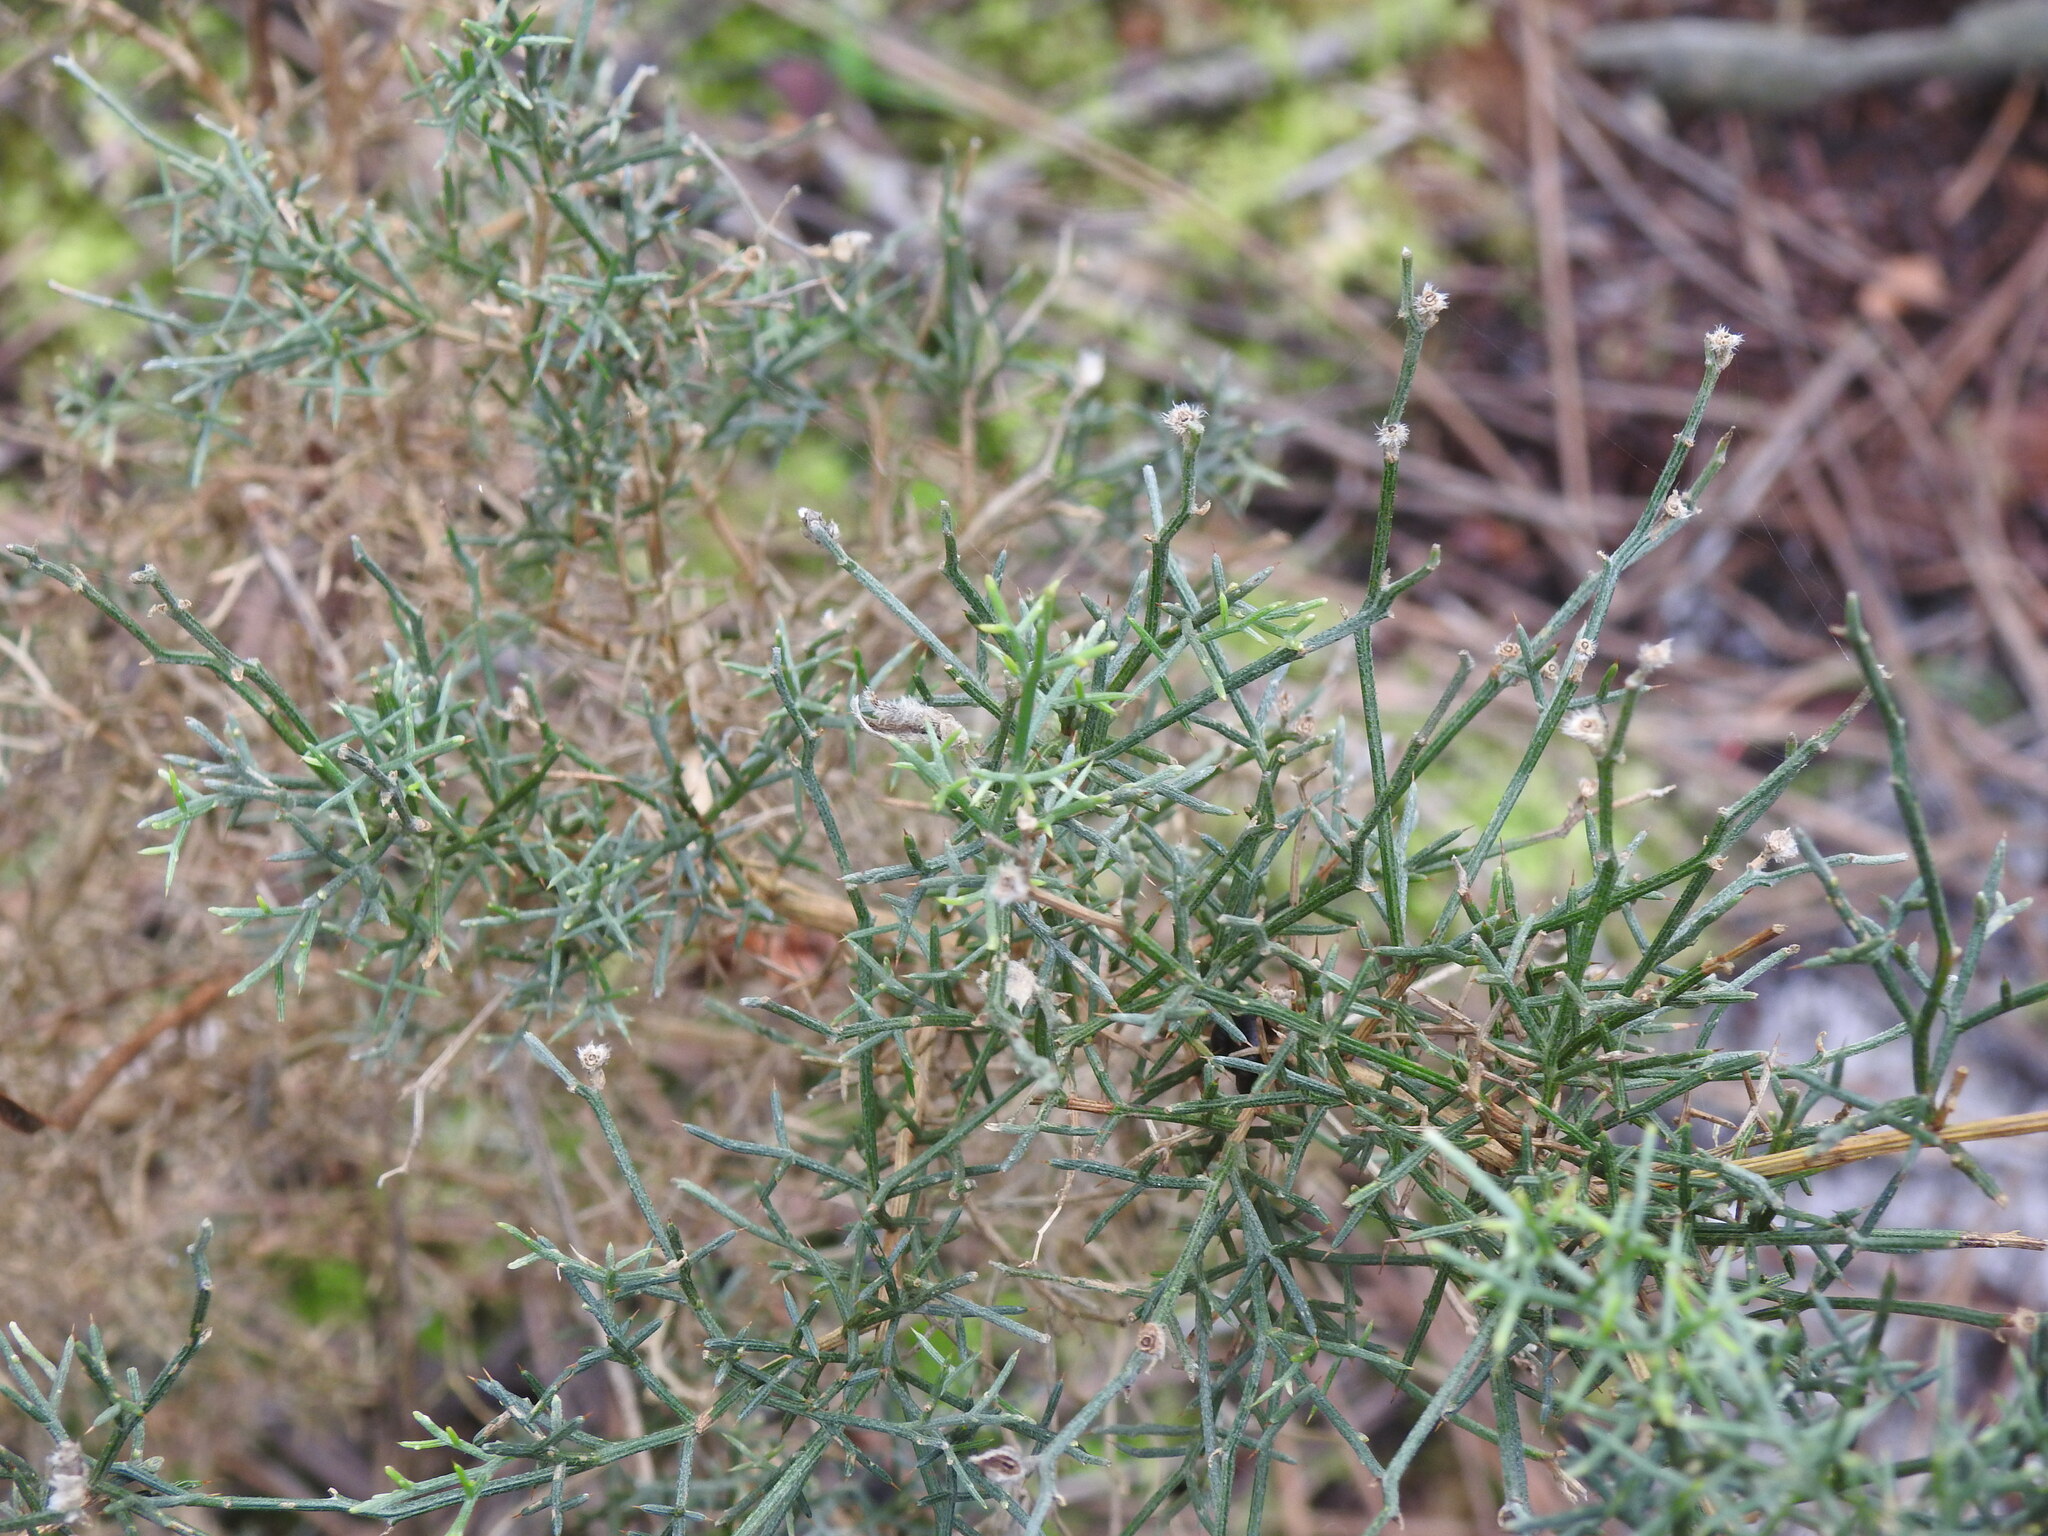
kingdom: Plantae
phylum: Tracheophyta
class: Magnoliopsida
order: Fabales
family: Fabaceae
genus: Stauracanthus
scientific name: Stauracanthus genistoides
